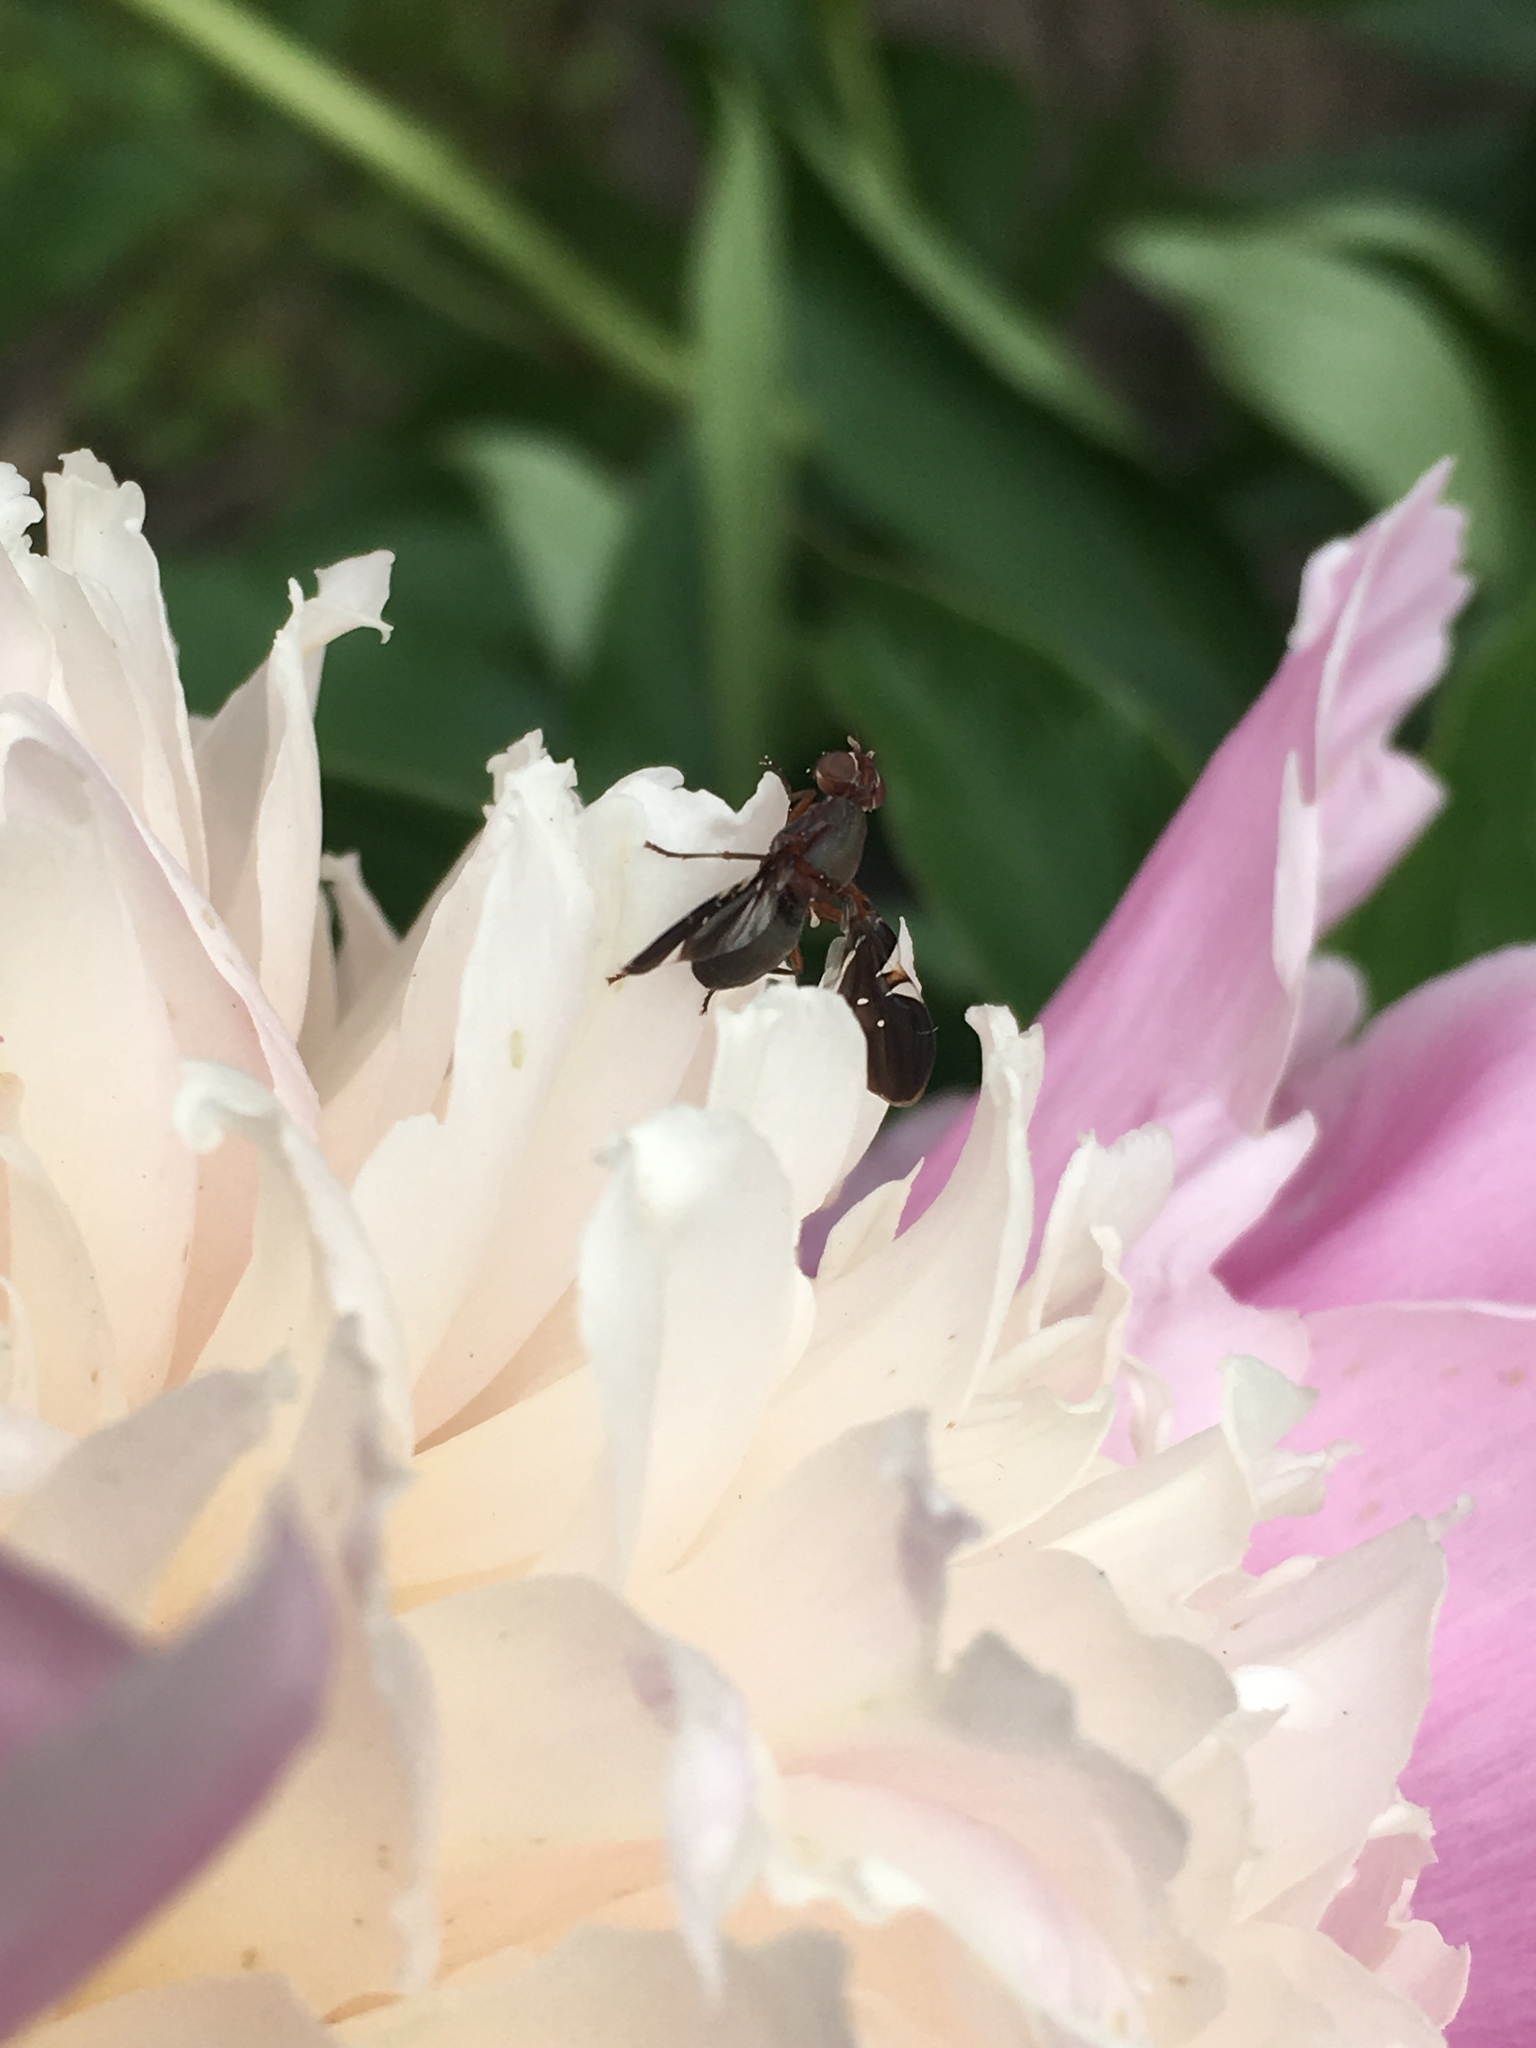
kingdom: Animalia
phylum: Arthropoda
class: Insecta
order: Diptera
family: Ulidiidae
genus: Delphinia
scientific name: Delphinia picta
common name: Common picture-winged fly
